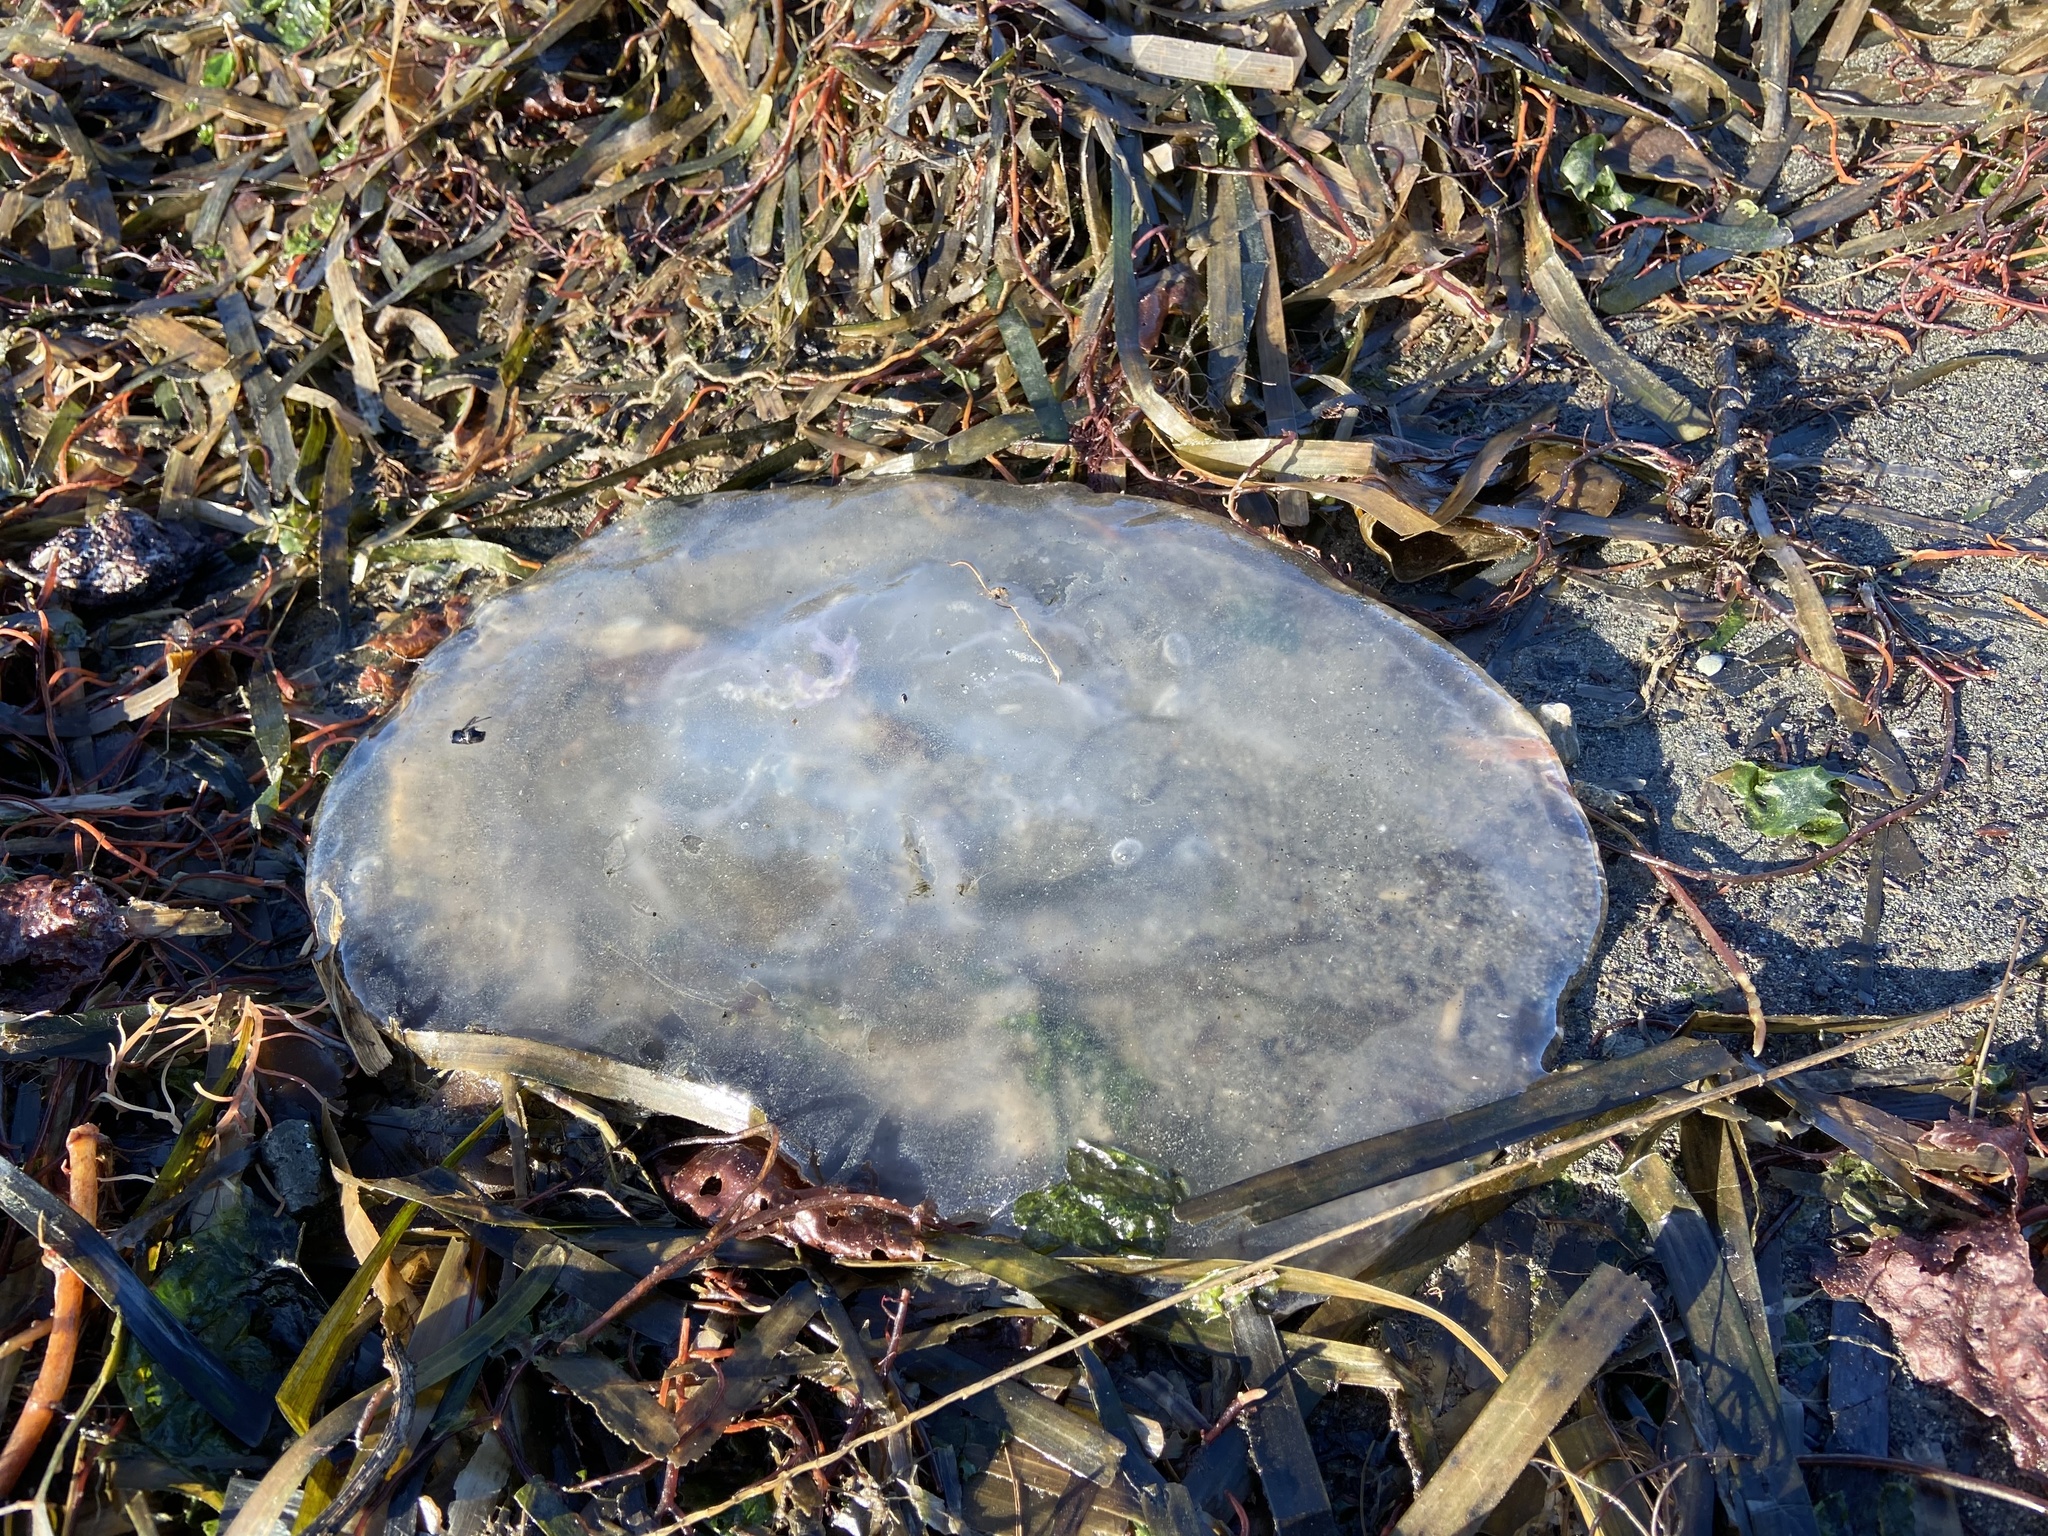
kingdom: Animalia
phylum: Cnidaria
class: Scyphozoa
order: Semaeostomeae
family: Ulmaridae
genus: Aurelia
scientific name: Aurelia labiata
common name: Pacific moon jelly
